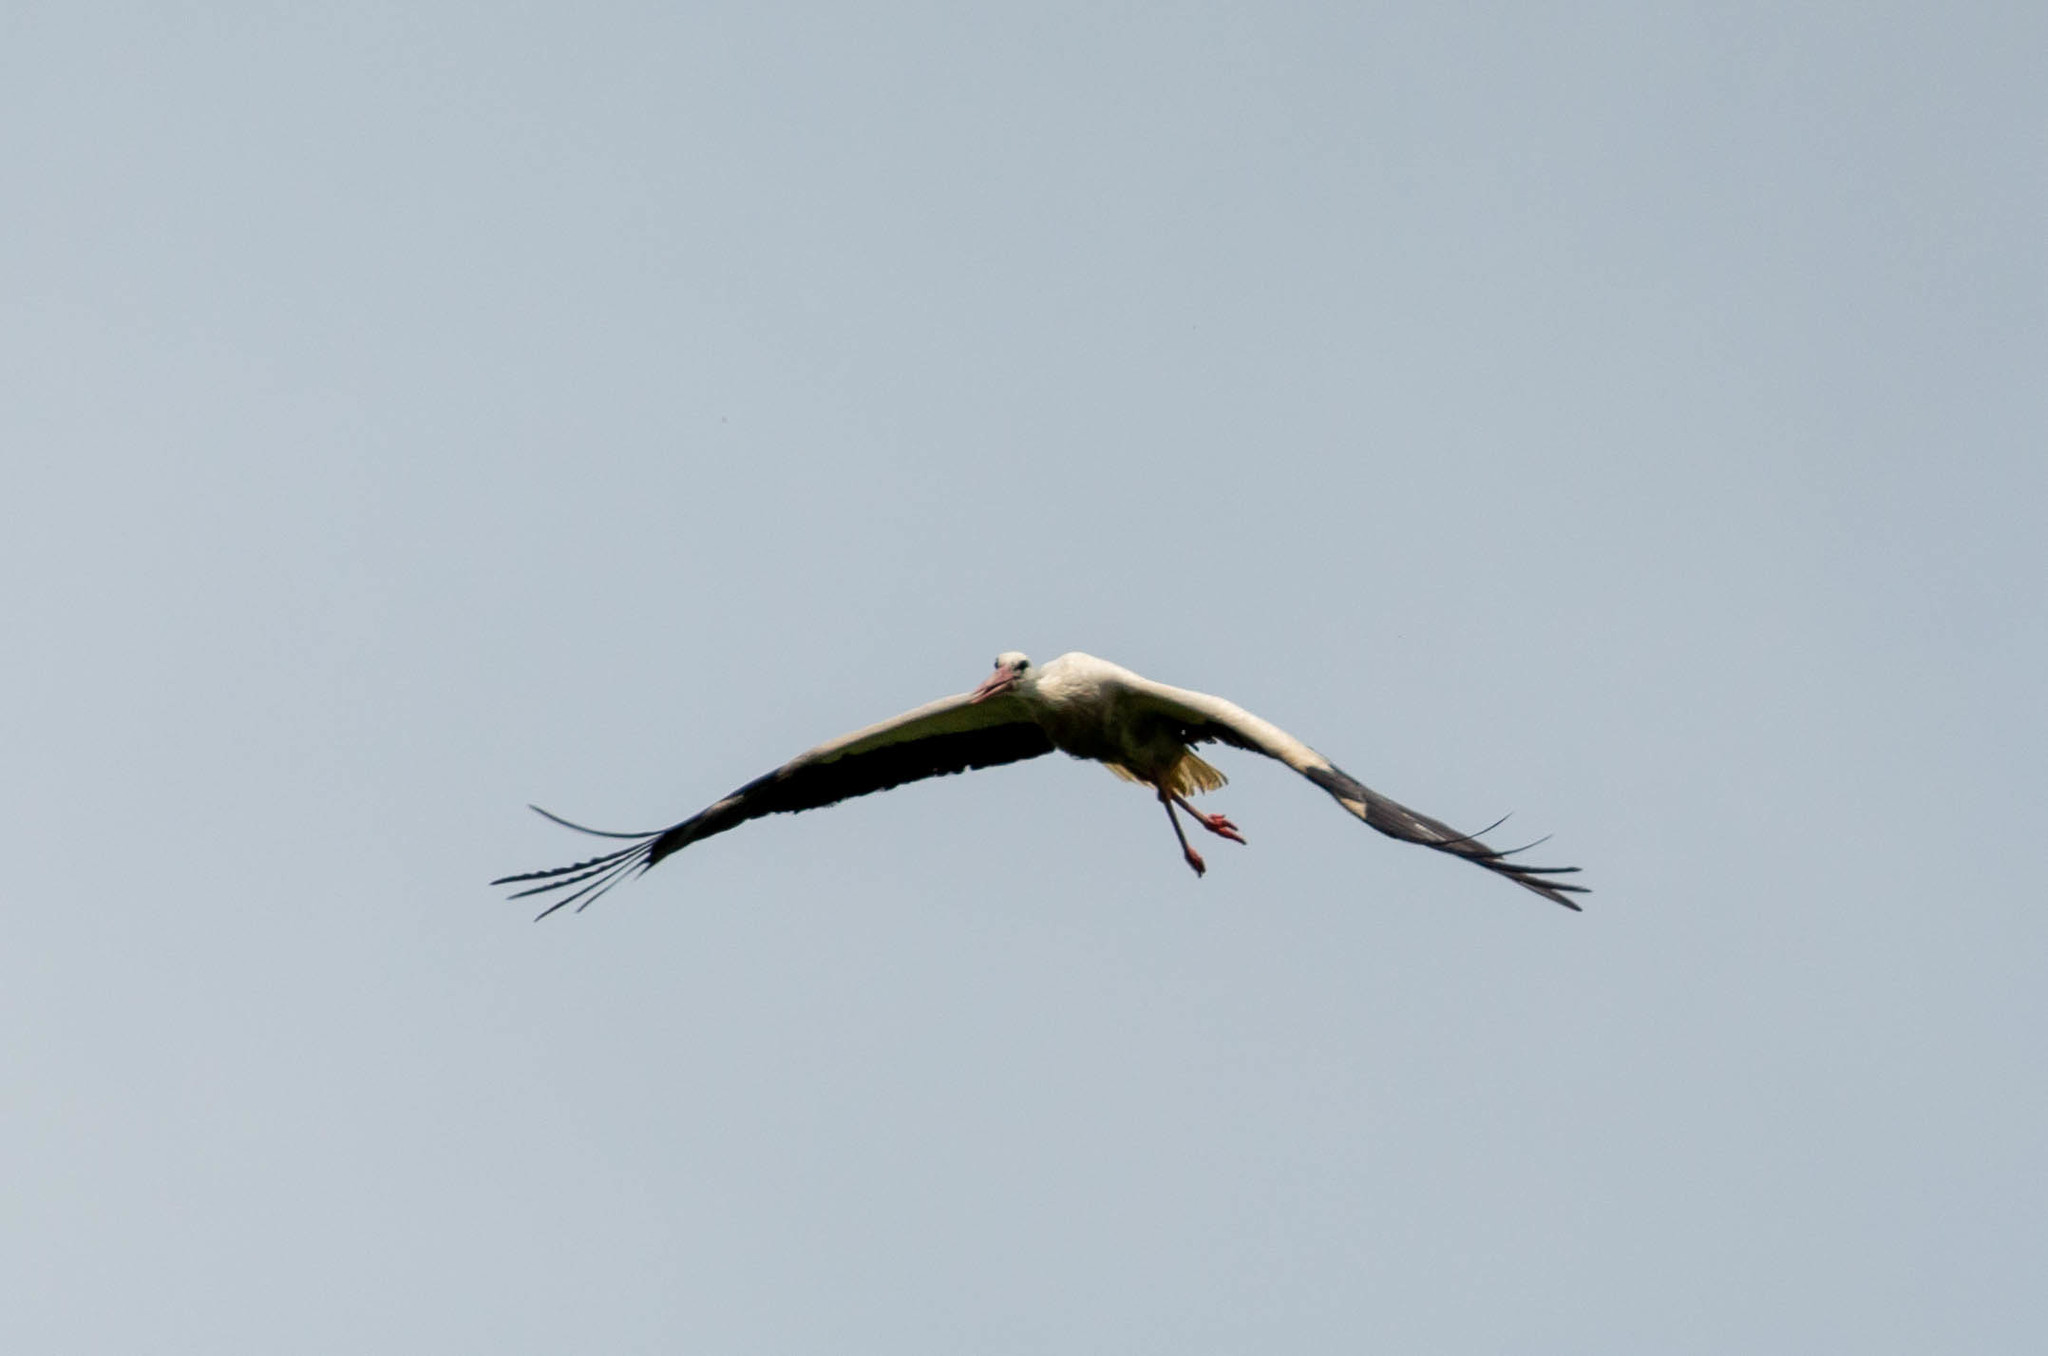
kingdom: Animalia
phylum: Chordata
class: Aves
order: Ciconiiformes
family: Ciconiidae
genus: Ciconia
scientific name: Ciconia ciconia
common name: White stork
